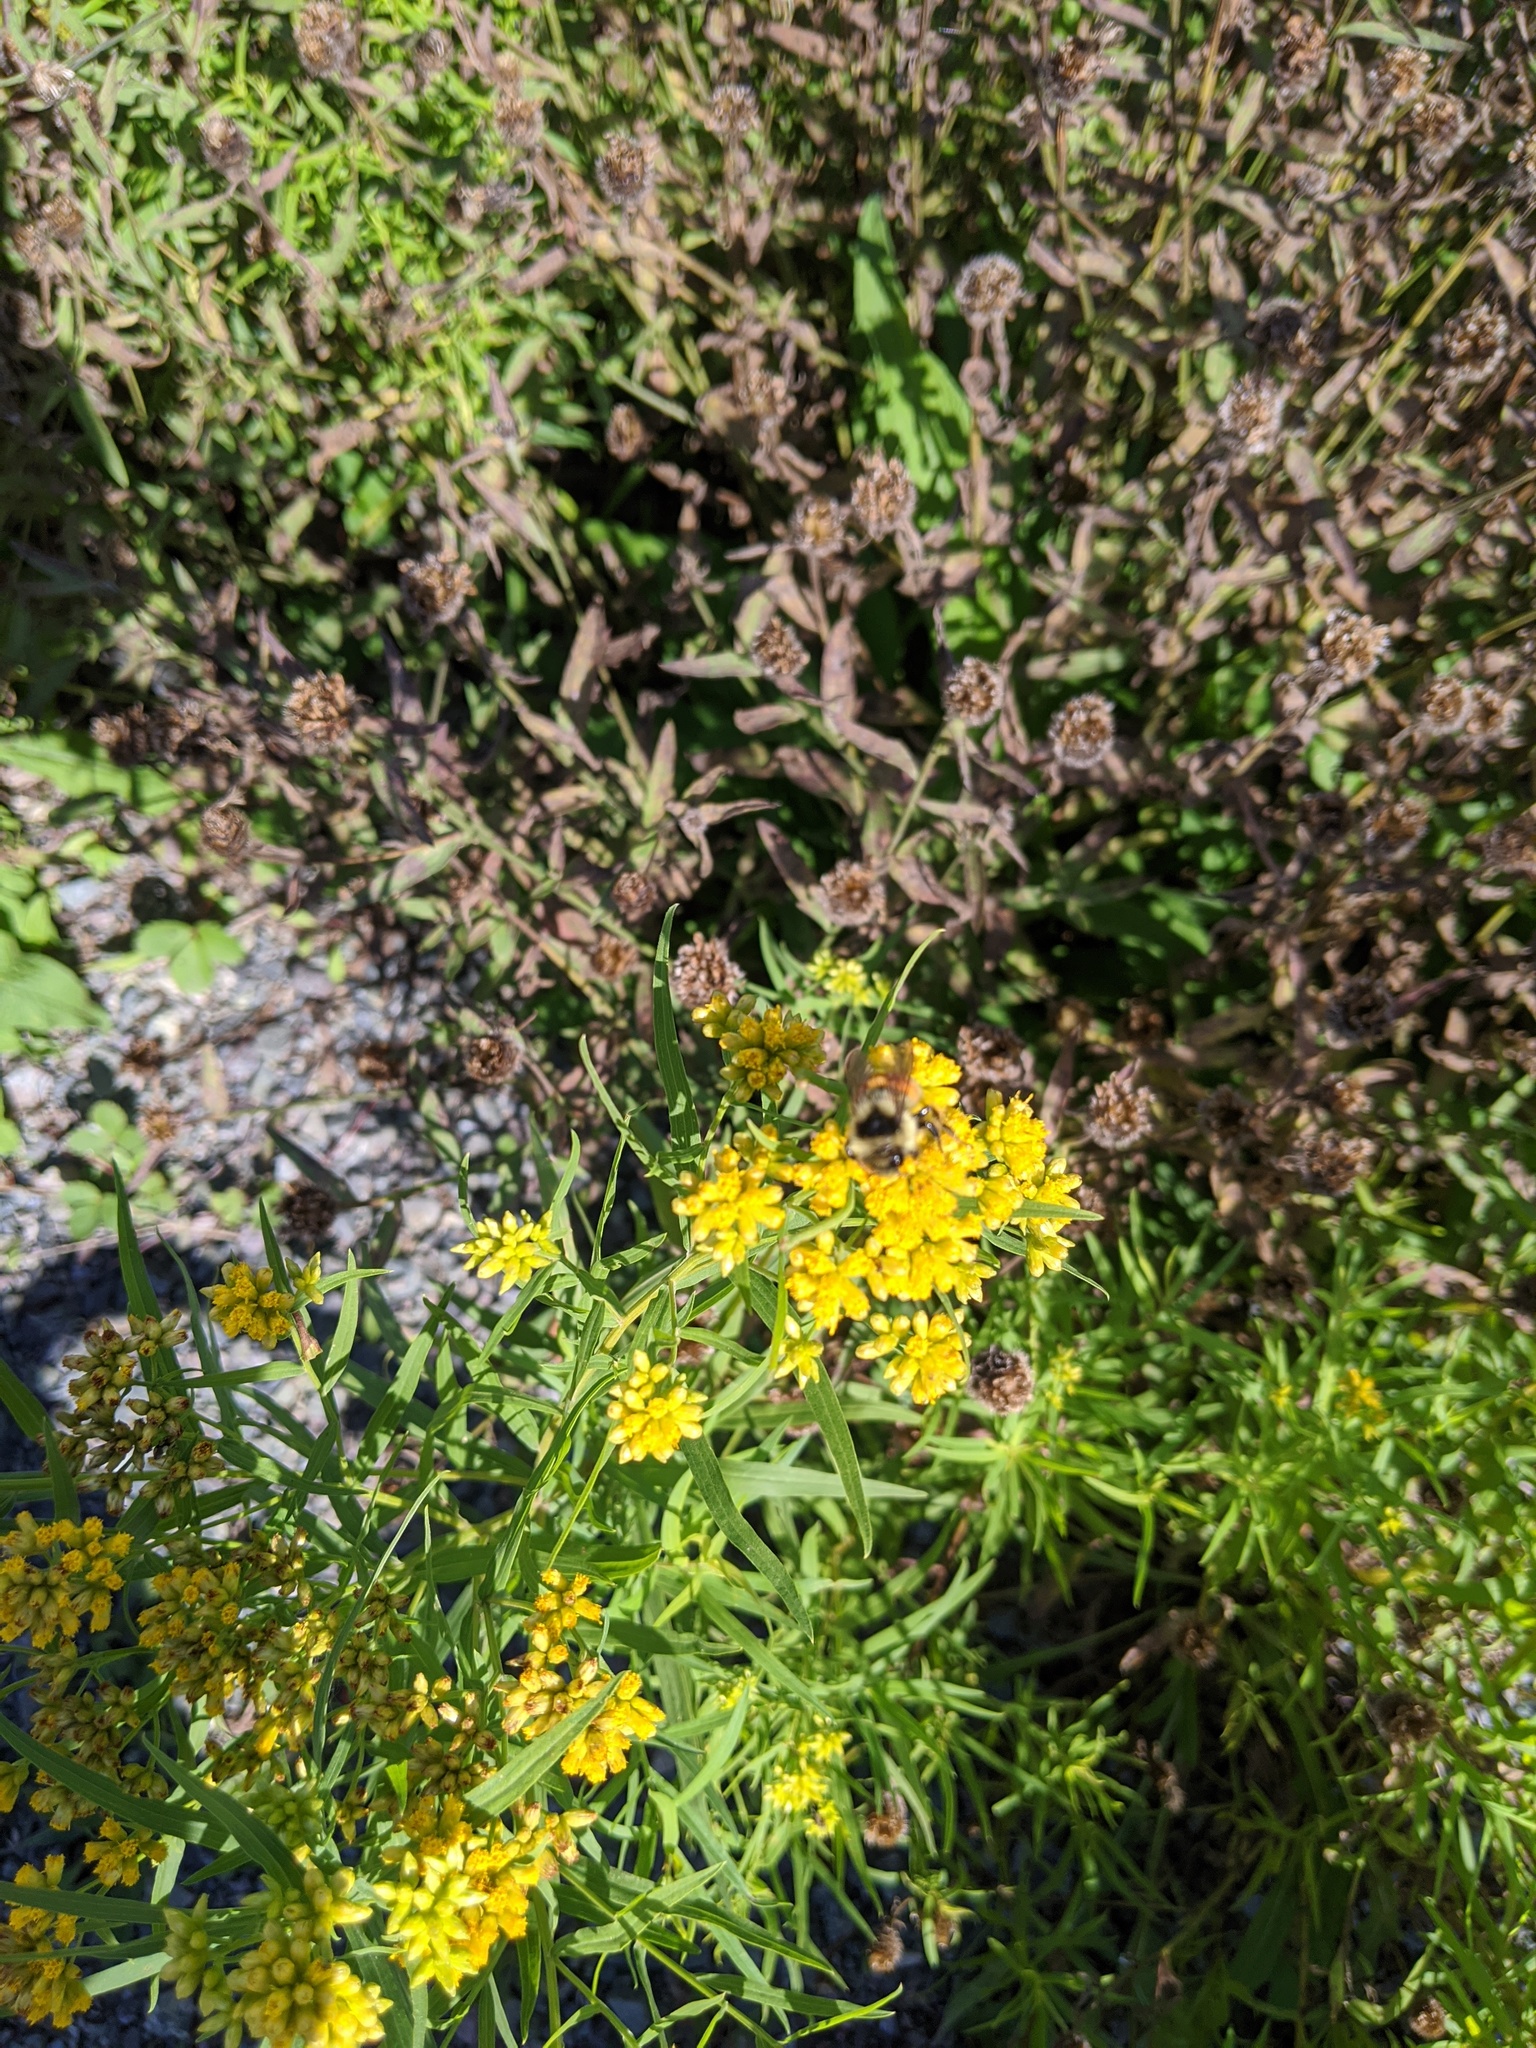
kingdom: Plantae
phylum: Tracheophyta
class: Magnoliopsida
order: Asterales
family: Asteraceae
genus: Euthamia
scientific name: Euthamia graminifolia
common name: Common goldentop
